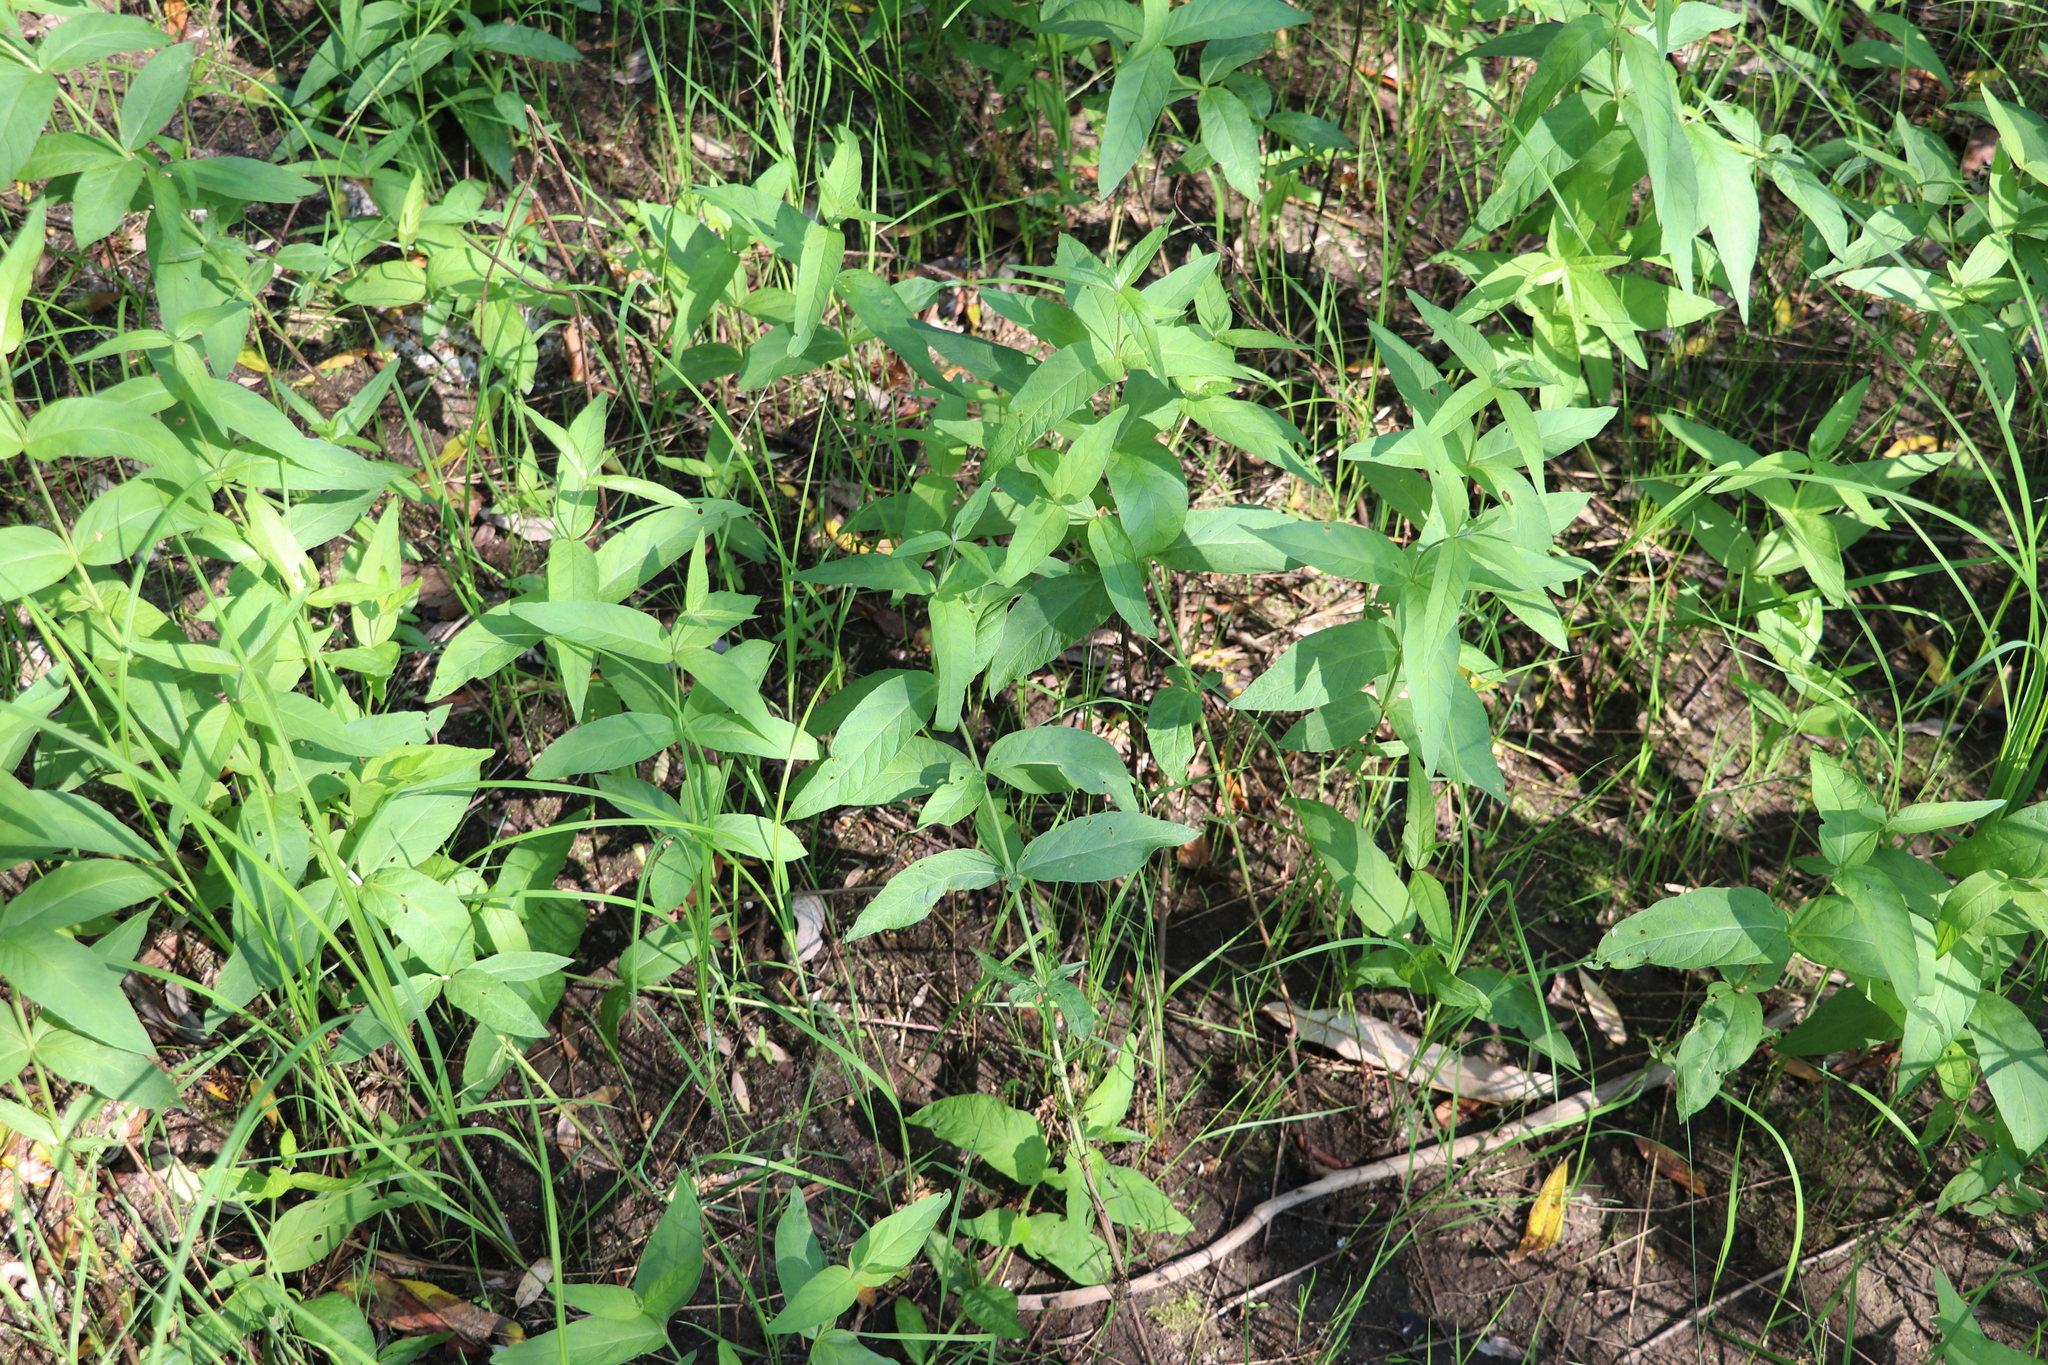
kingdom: Plantae
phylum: Tracheophyta
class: Magnoliopsida
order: Ericales
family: Primulaceae
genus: Lysimachia
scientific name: Lysimachia vulgaris
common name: Yellow loosestrife
